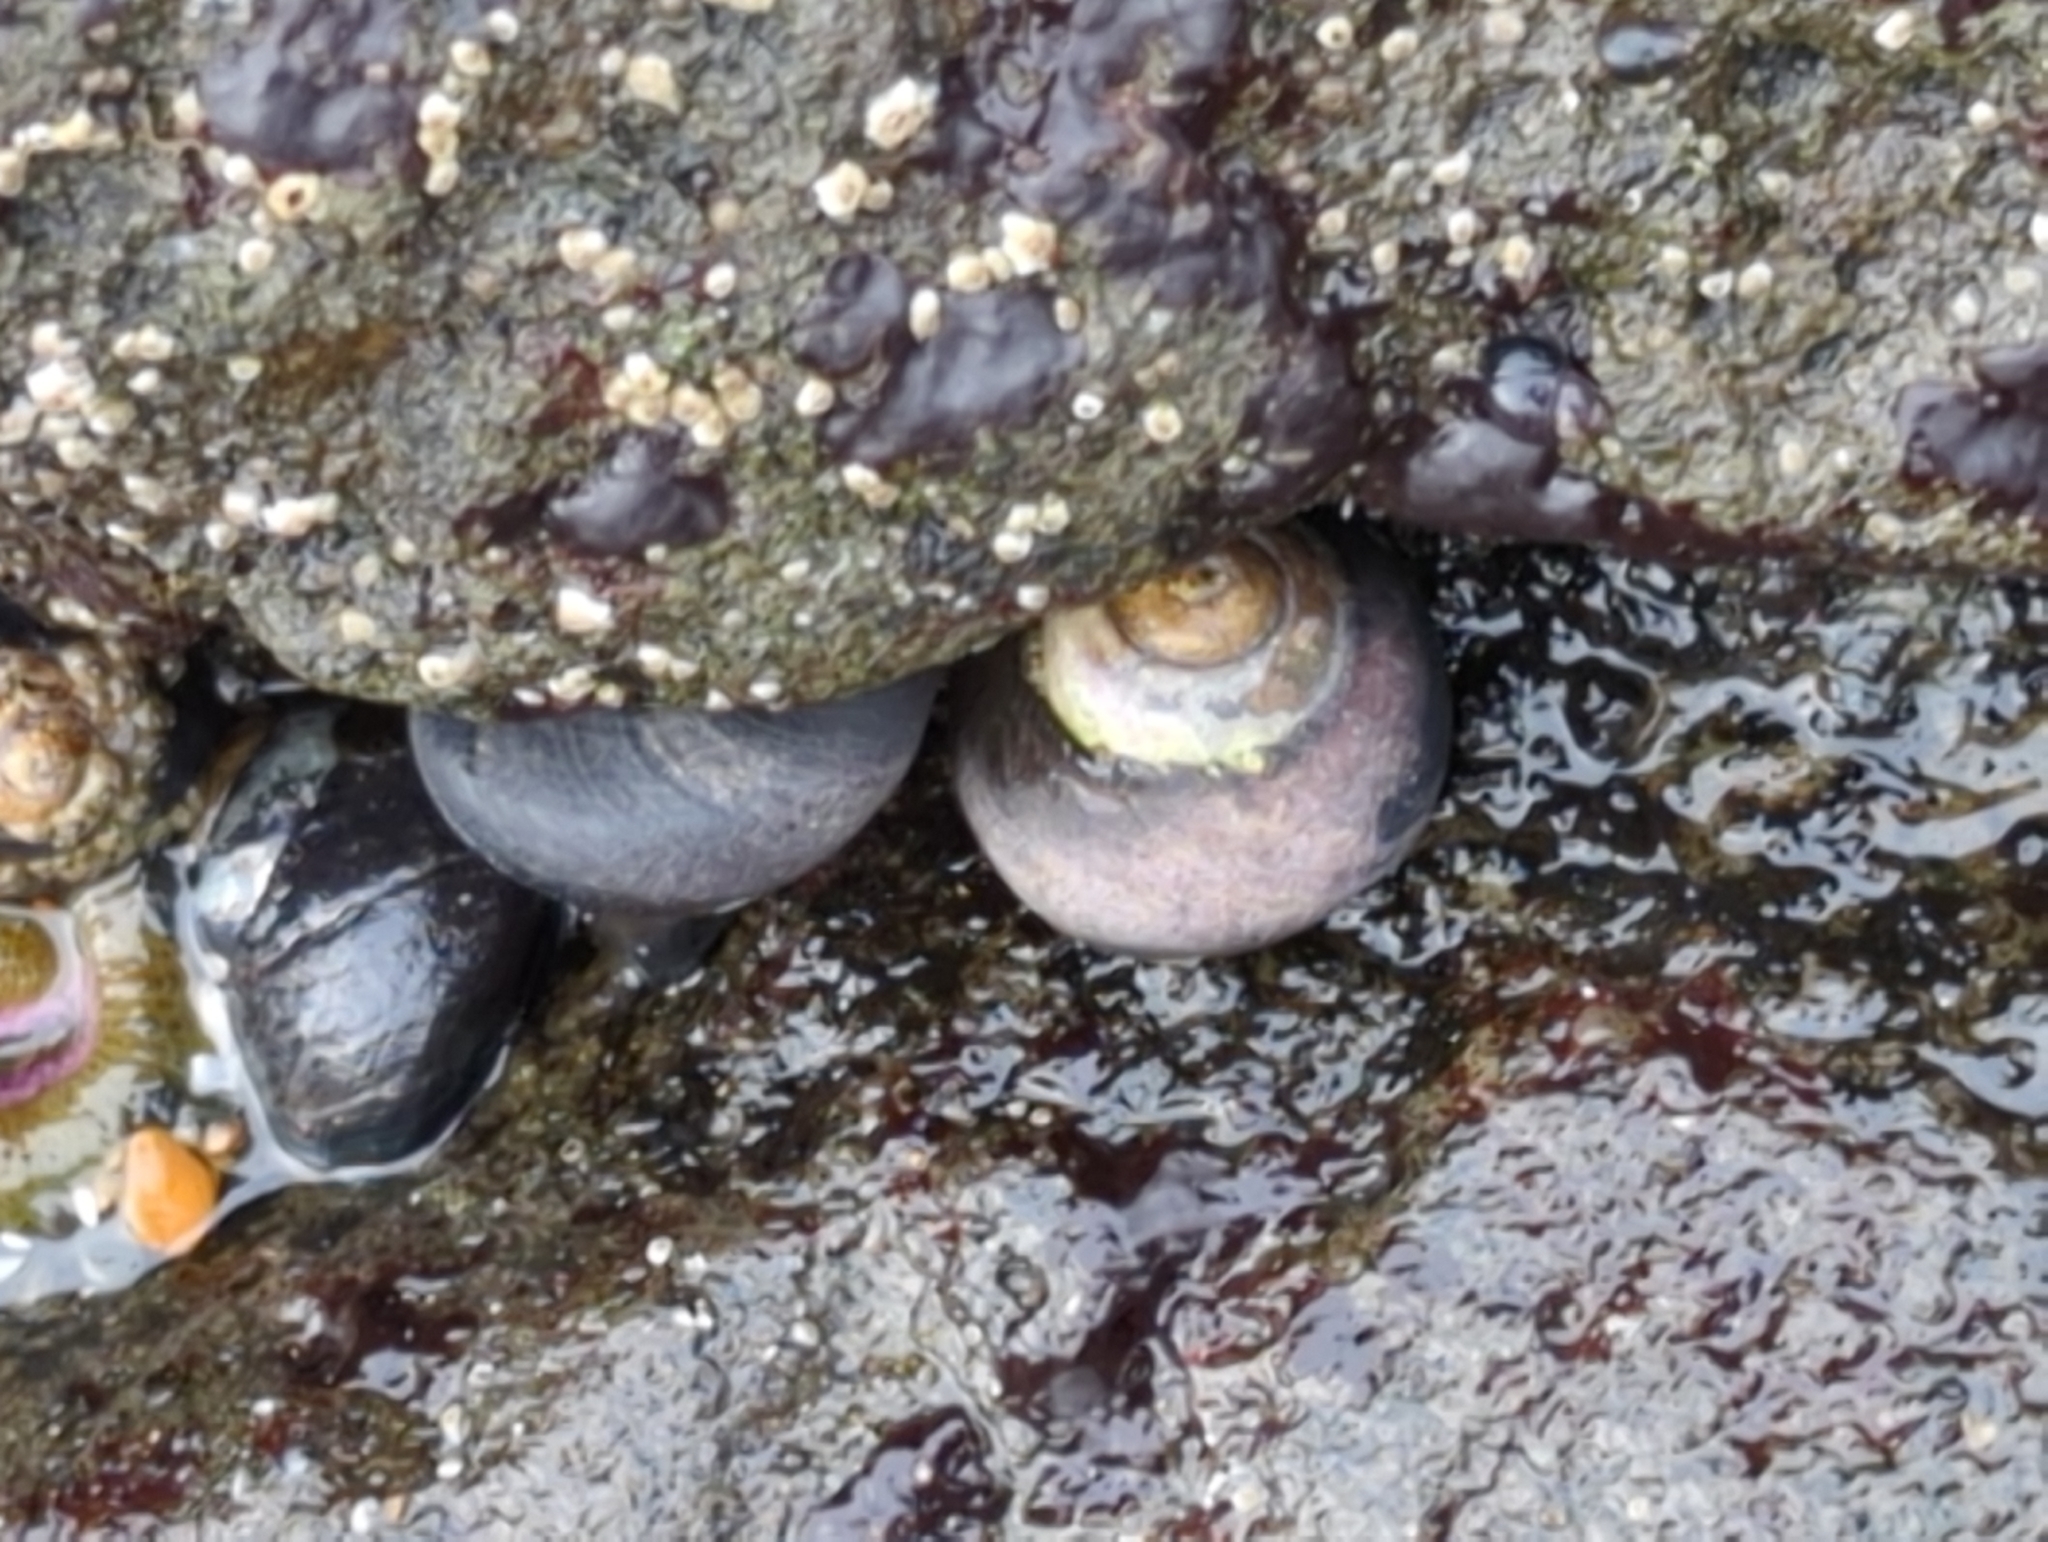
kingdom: Animalia
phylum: Mollusca
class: Gastropoda
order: Trochida
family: Tegulidae
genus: Tegula
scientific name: Tegula funebralis
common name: Black tegula
